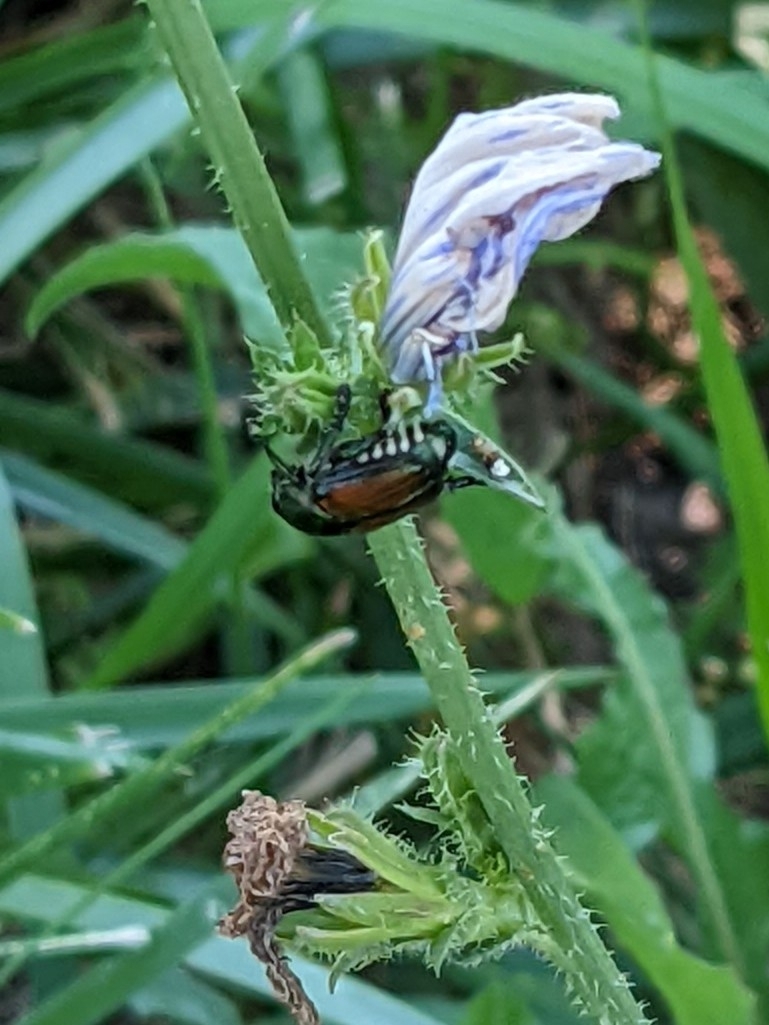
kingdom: Animalia
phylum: Arthropoda
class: Insecta
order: Coleoptera
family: Scarabaeidae
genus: Popillia
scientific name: Popillia japonica
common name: Japanese beetle
